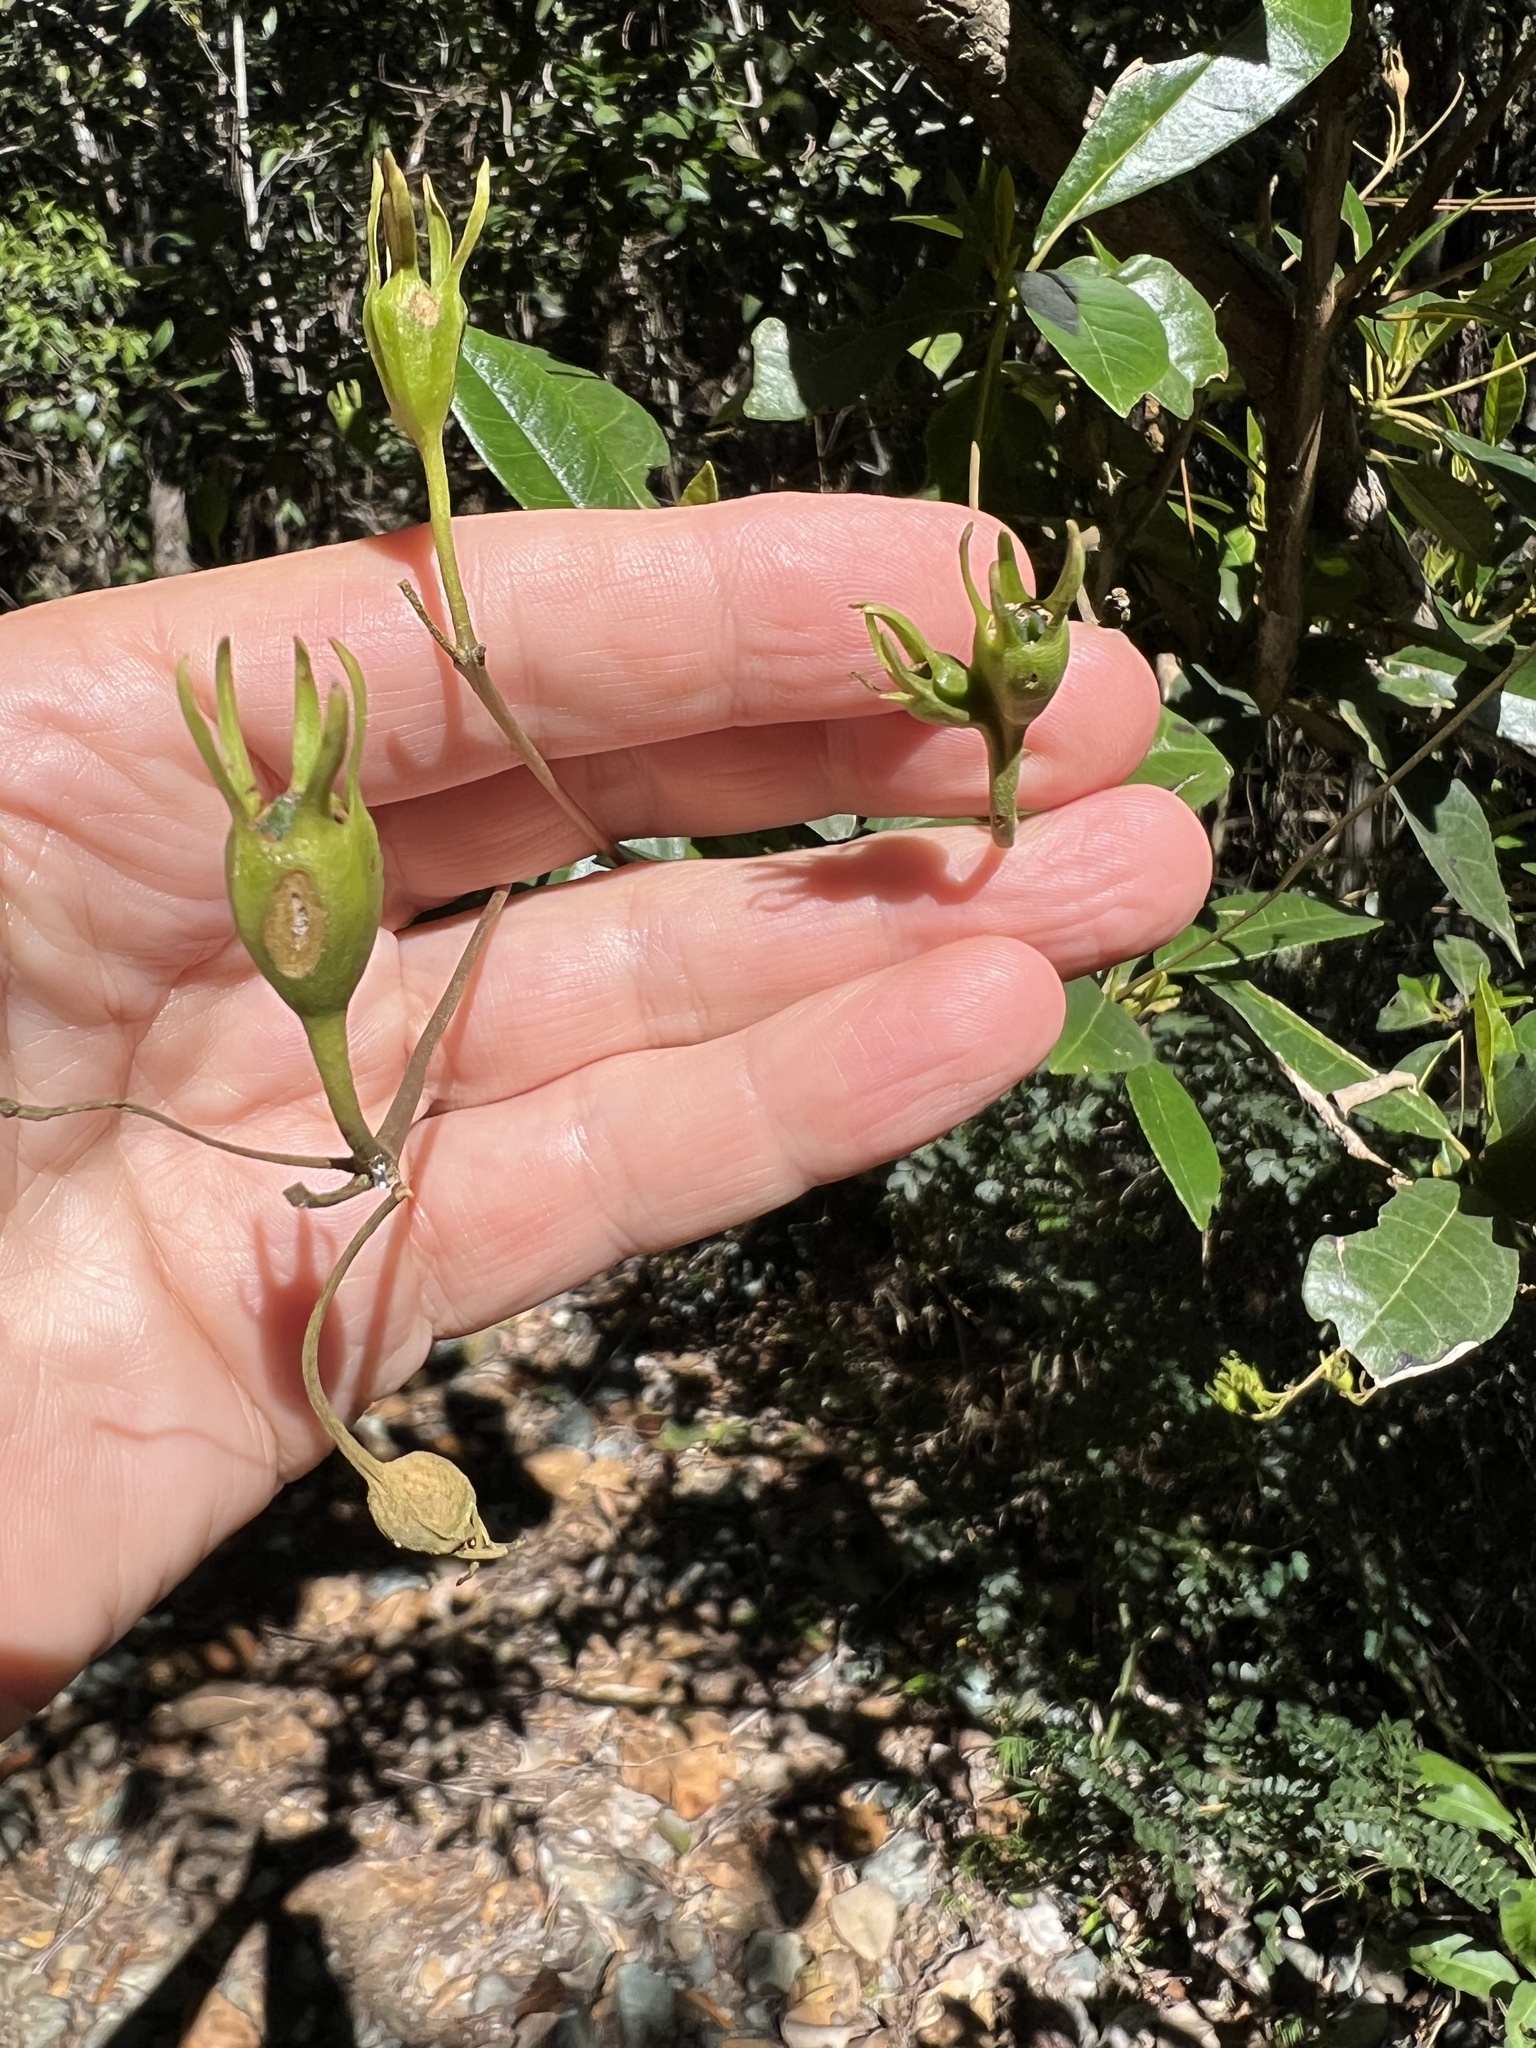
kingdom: Plantae
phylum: Tracheophyta
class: Magnoliopsida
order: Lamiales
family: Gesneriaceae
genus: Gesneria
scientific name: Gesneria pedunculosa
